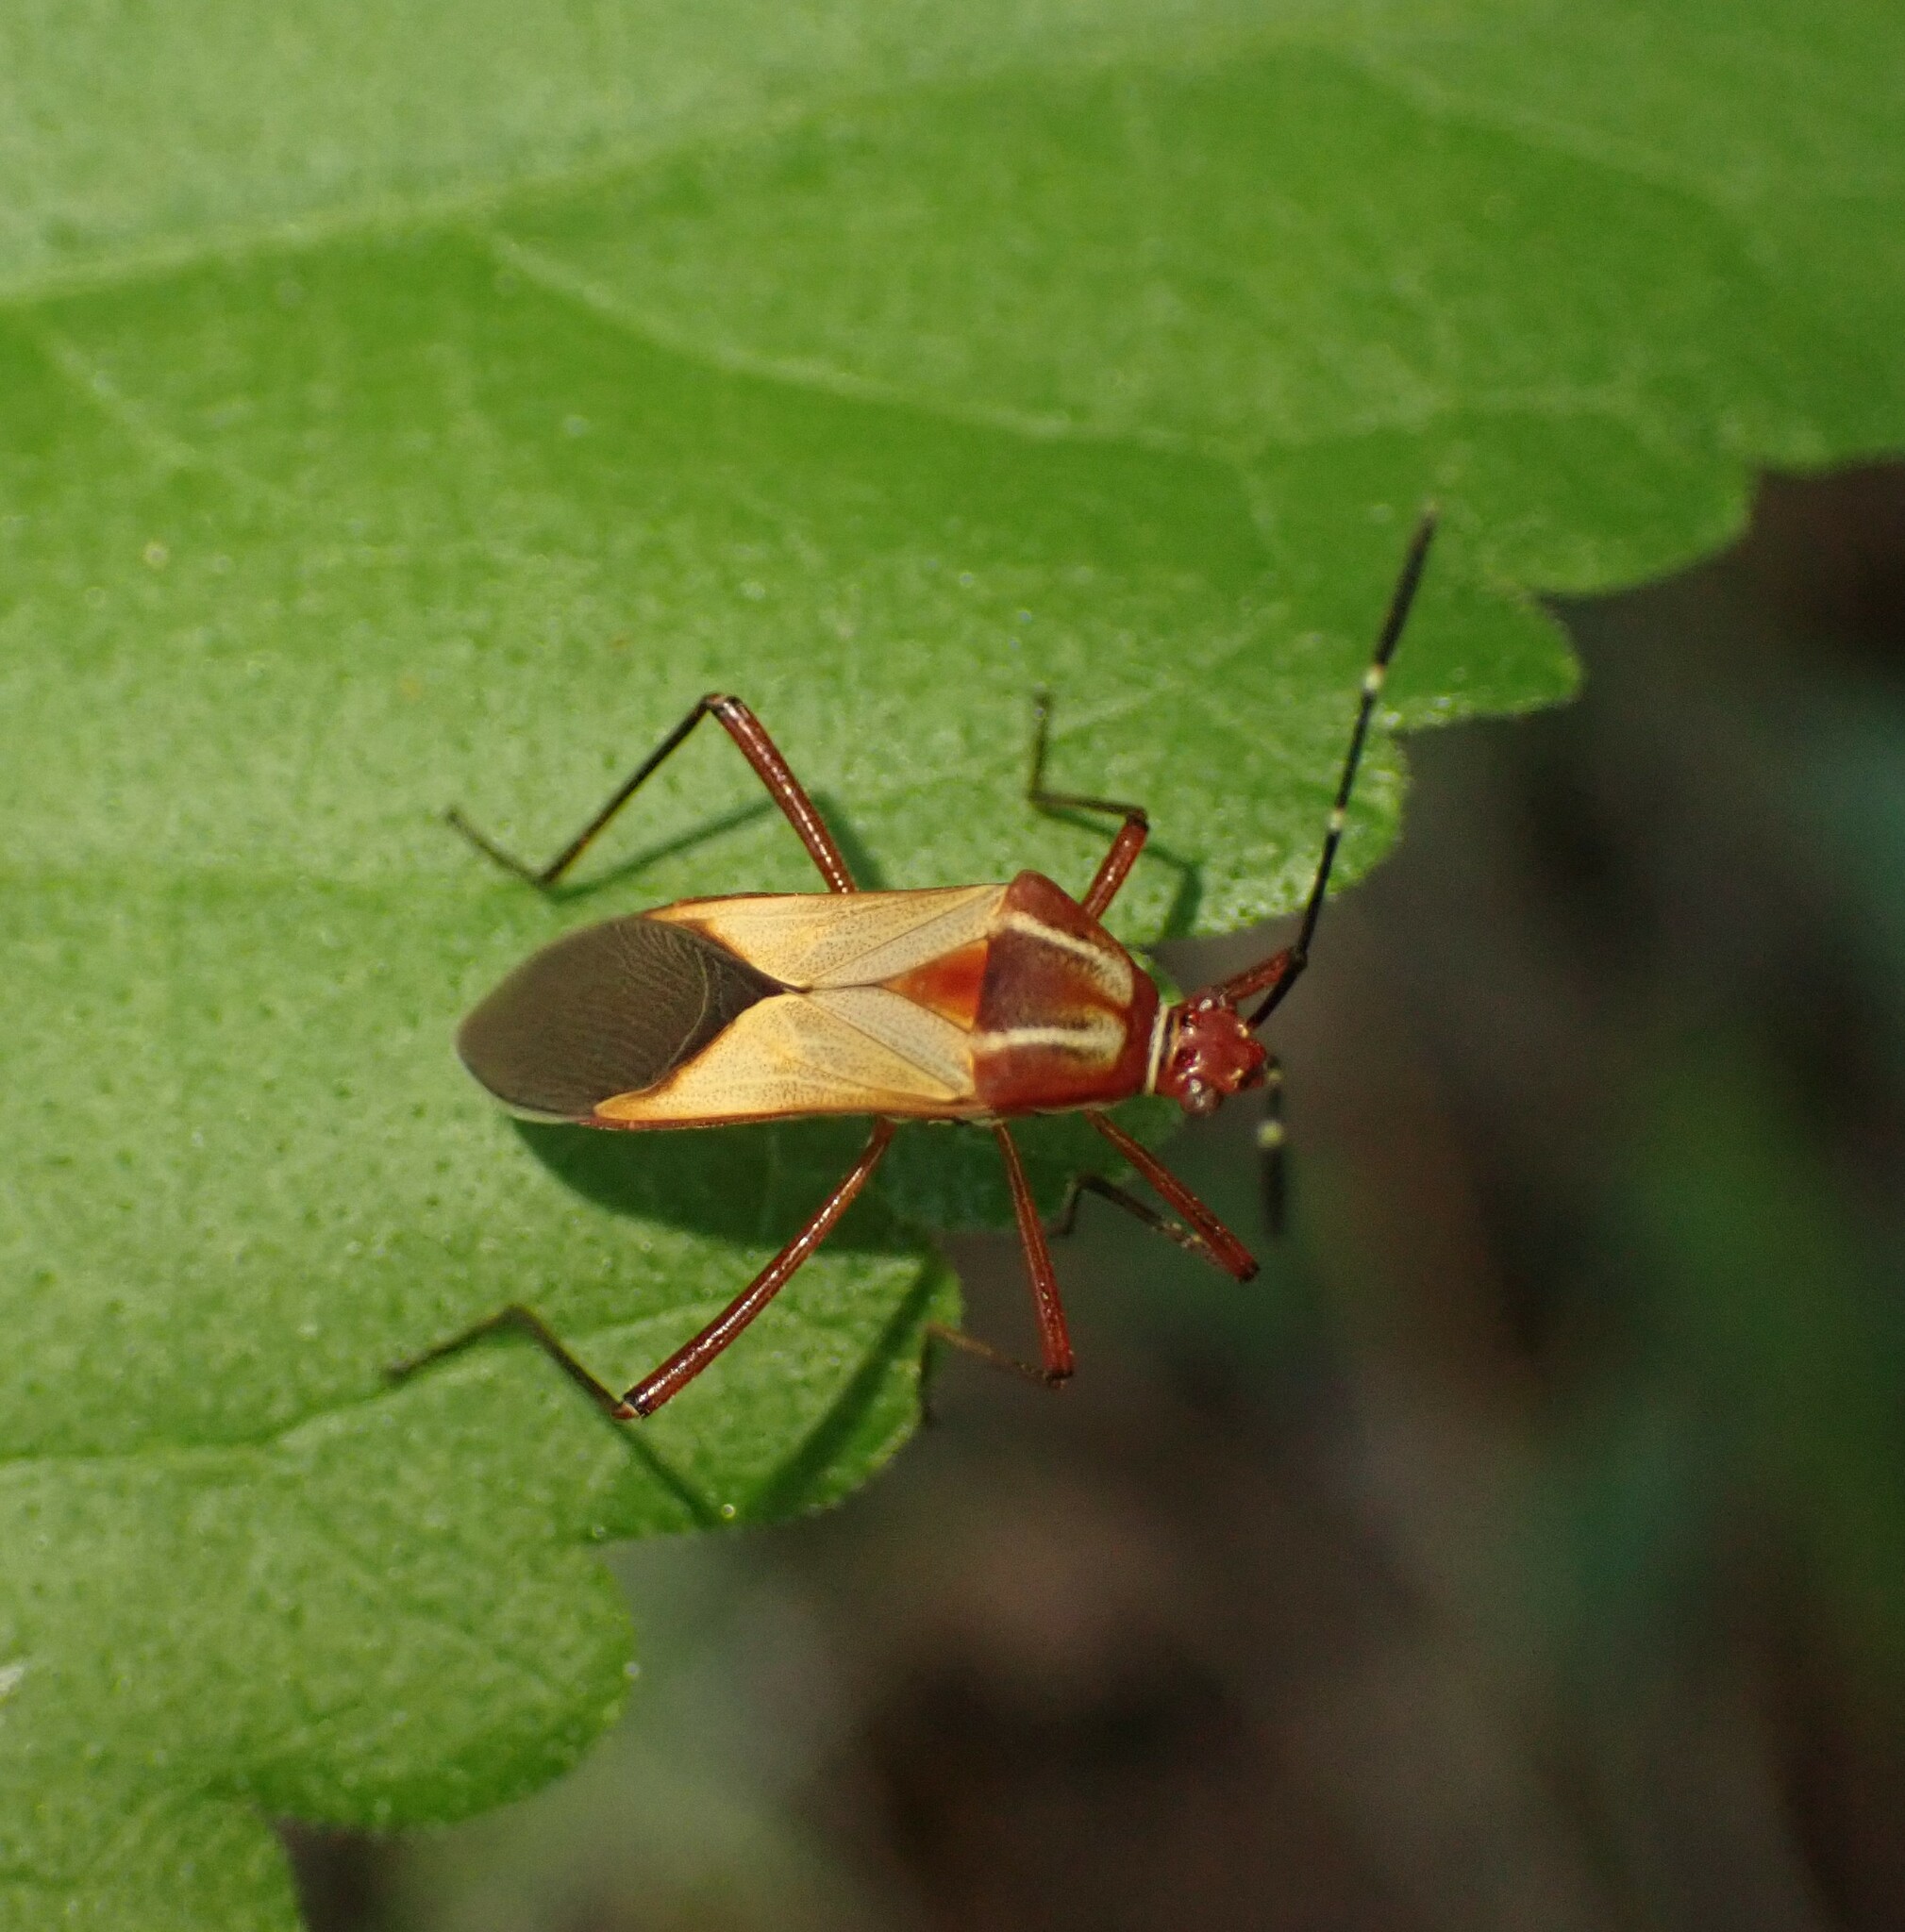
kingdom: Animalia
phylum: Arthropoda
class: Insecta
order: Hemiptera
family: Coreidae
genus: Hypselonotus
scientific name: Hypselonotus interruptus
